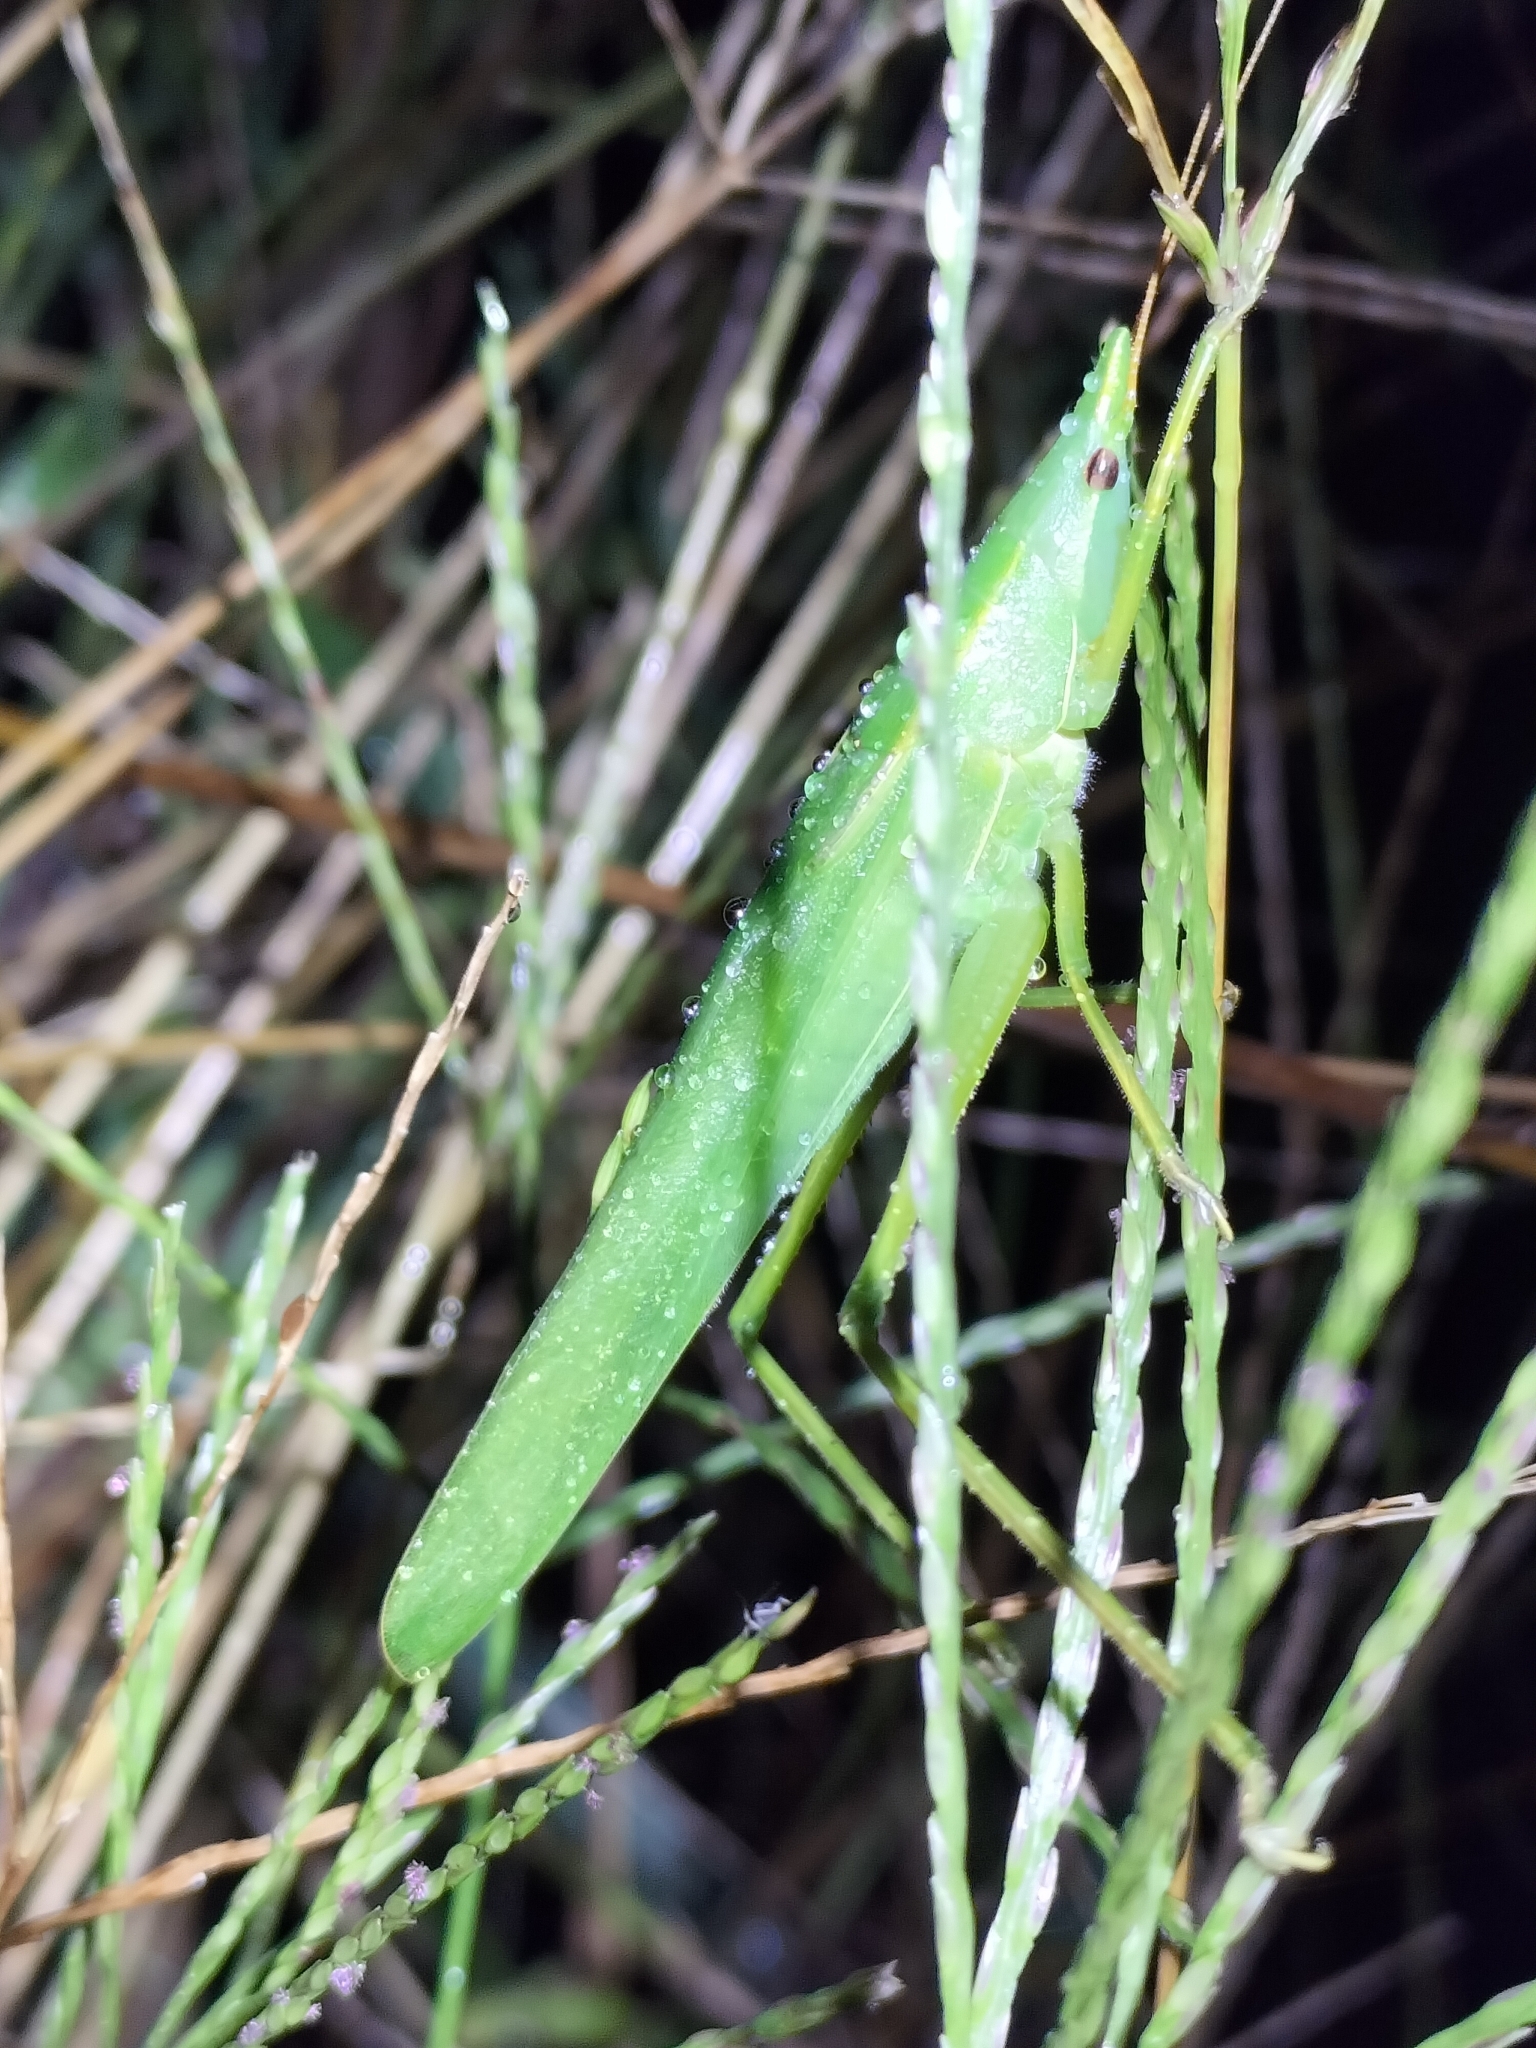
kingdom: Animalia
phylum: Arthropoda
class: Insecta
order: Orthoptera
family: Tettigoniidae
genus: Pseudorhynchus
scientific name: Pseudorhynchus lessonii
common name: Lesson's mimicking snout nose
